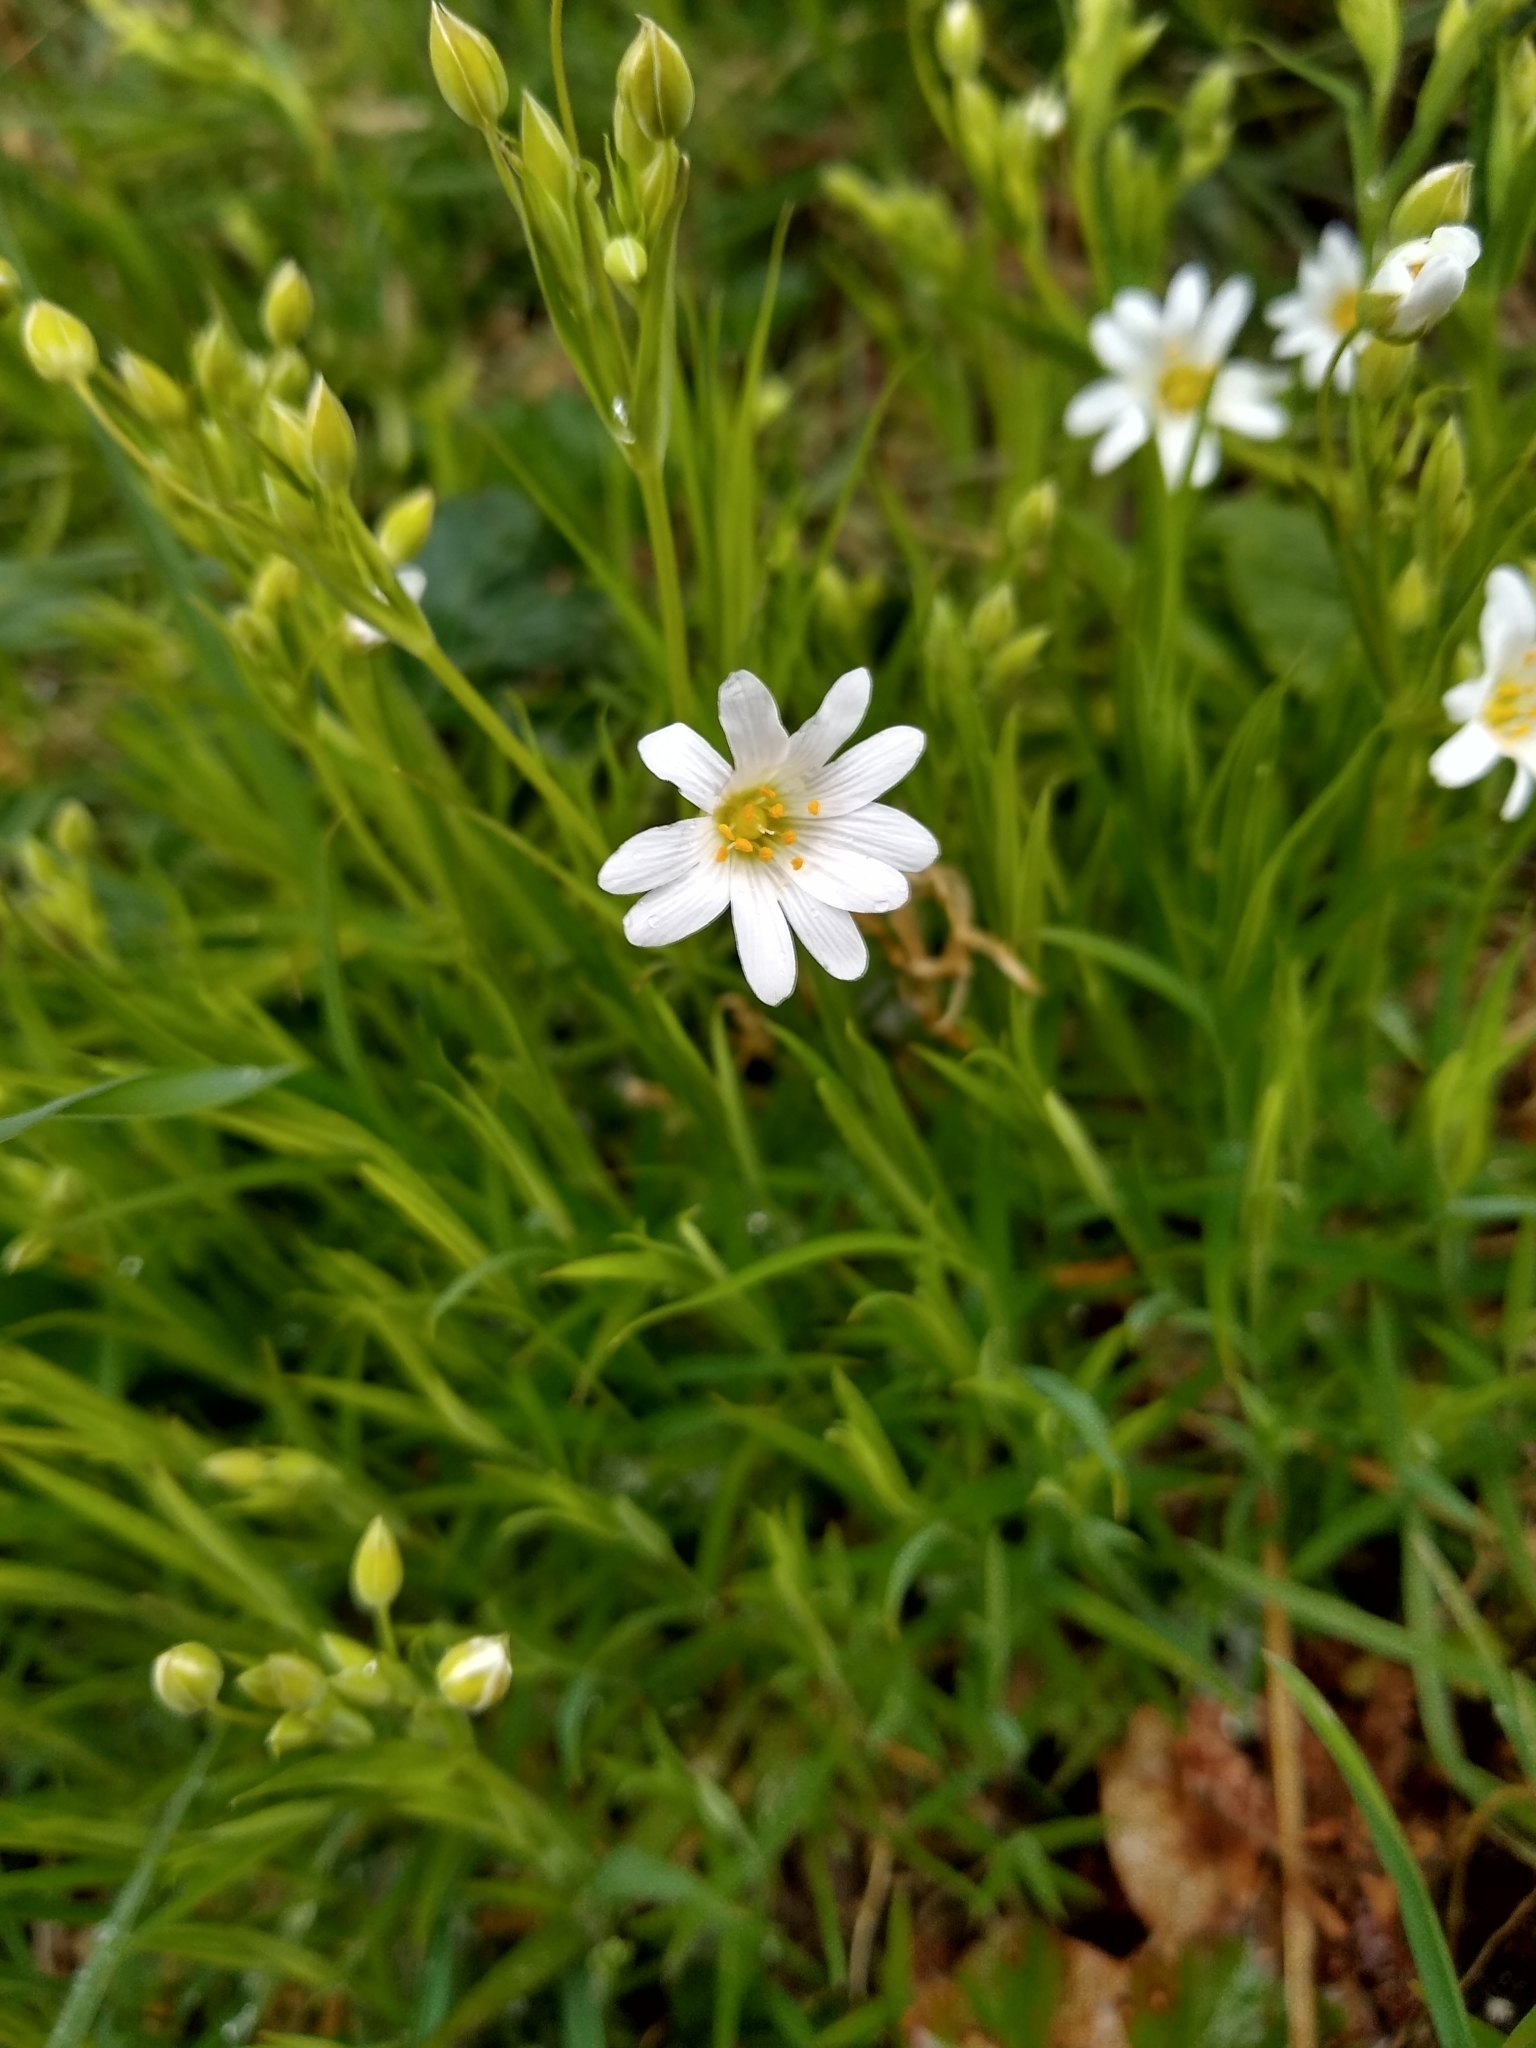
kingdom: Plantae
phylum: Tracheophyta
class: Magnoliopsida
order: Caryophyllales
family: Caryophyllaceae
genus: Rabelera
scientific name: Rabelera holostea
